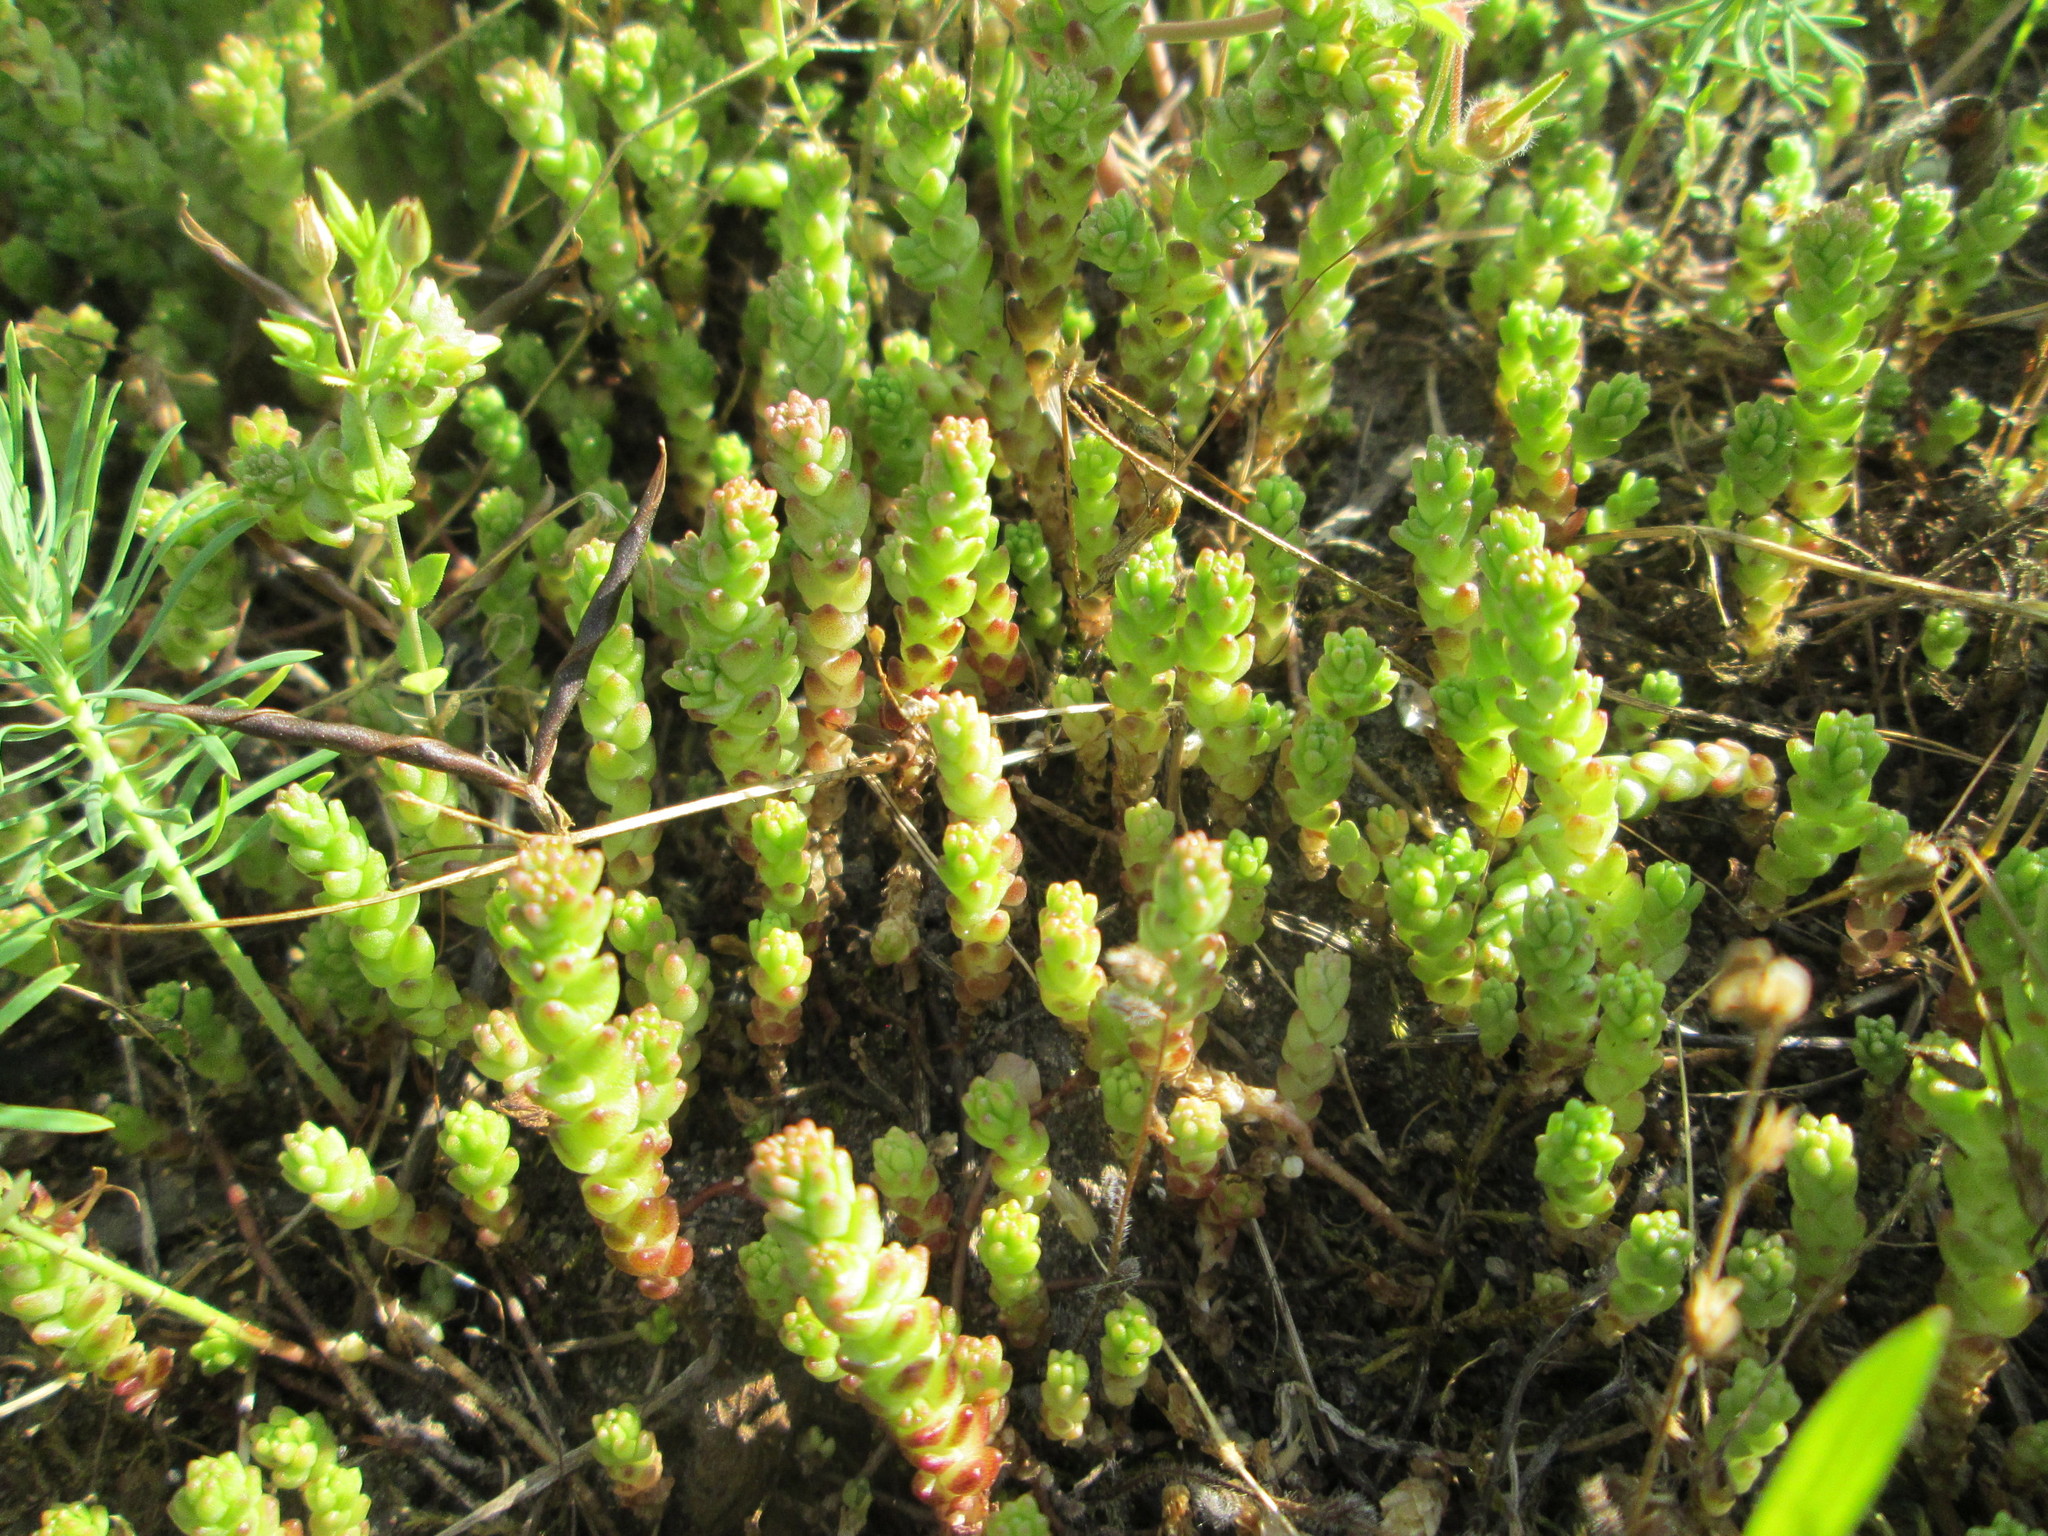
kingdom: Plantae
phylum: Tracheophyta
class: Magnoliopsida
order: Saxifragales
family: Crassulaceae
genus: Sedum
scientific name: Sedum acre
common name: Biting stonecrop
